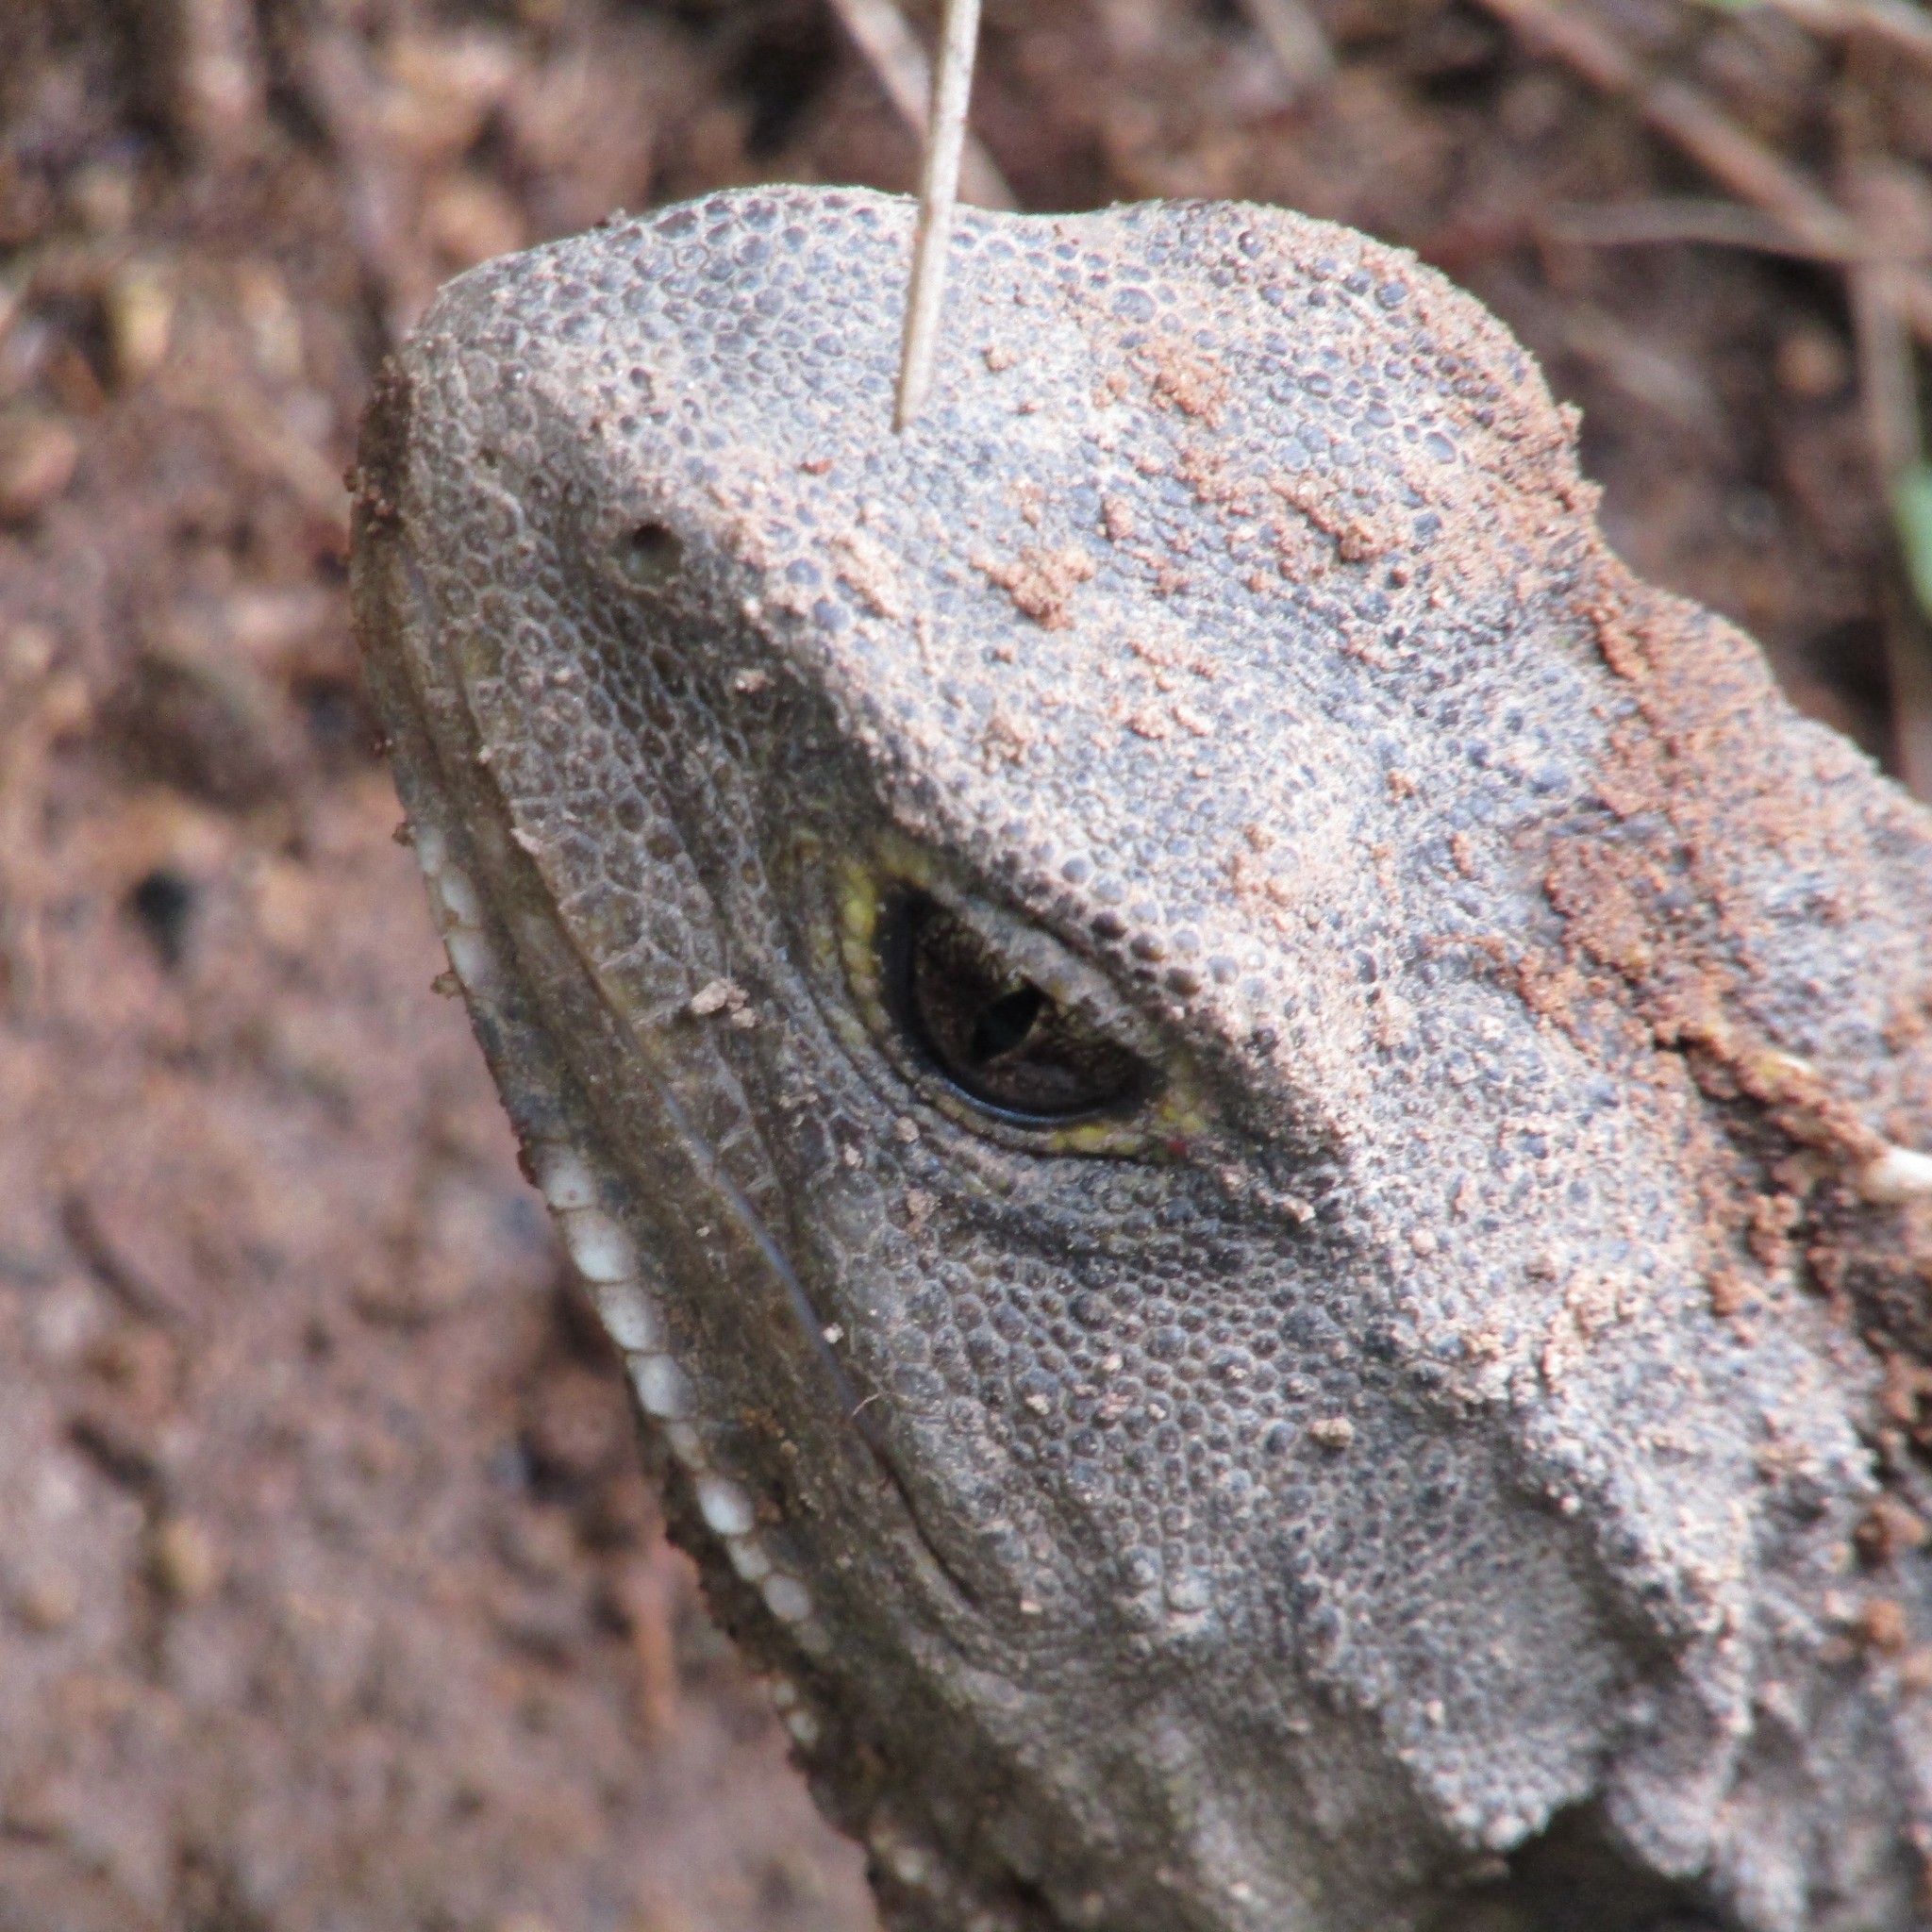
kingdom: Animalia
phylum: Chordata
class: Sphenodontia
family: Sphenodontidae
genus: Sphenodon
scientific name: Sphenodon punctatus
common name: Tuatara
